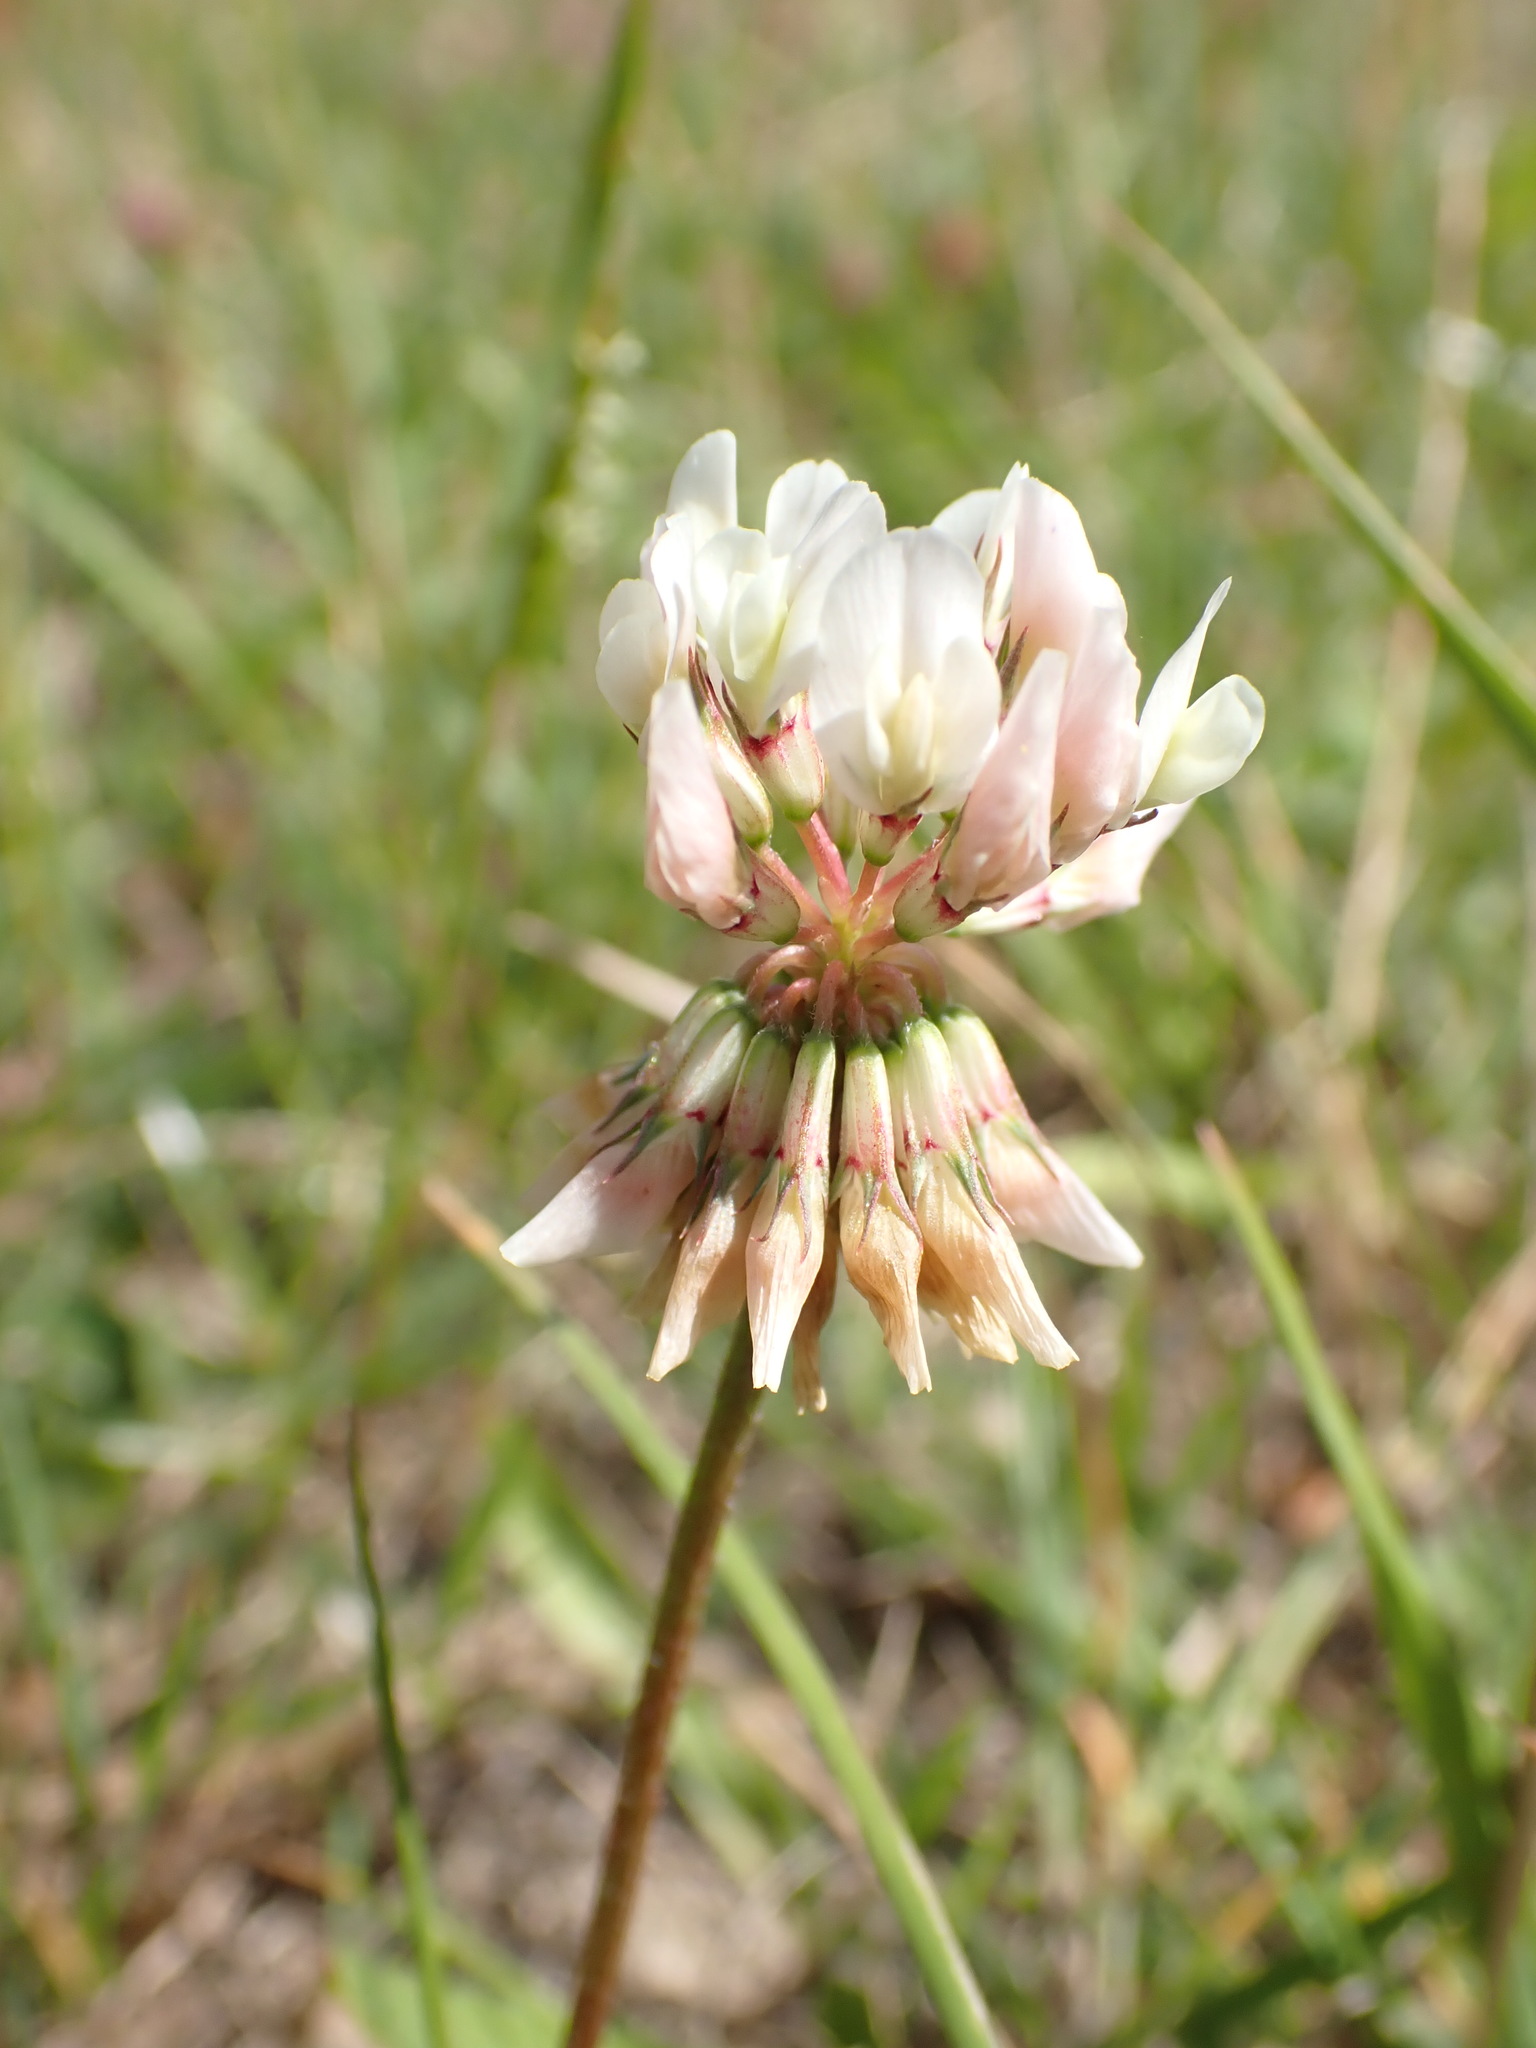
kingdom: Plantae
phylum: Tracheophyta
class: Magnoliopsida
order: Fabales
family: Fabaceae
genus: Trifolium
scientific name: Trifolium repens
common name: White clover
